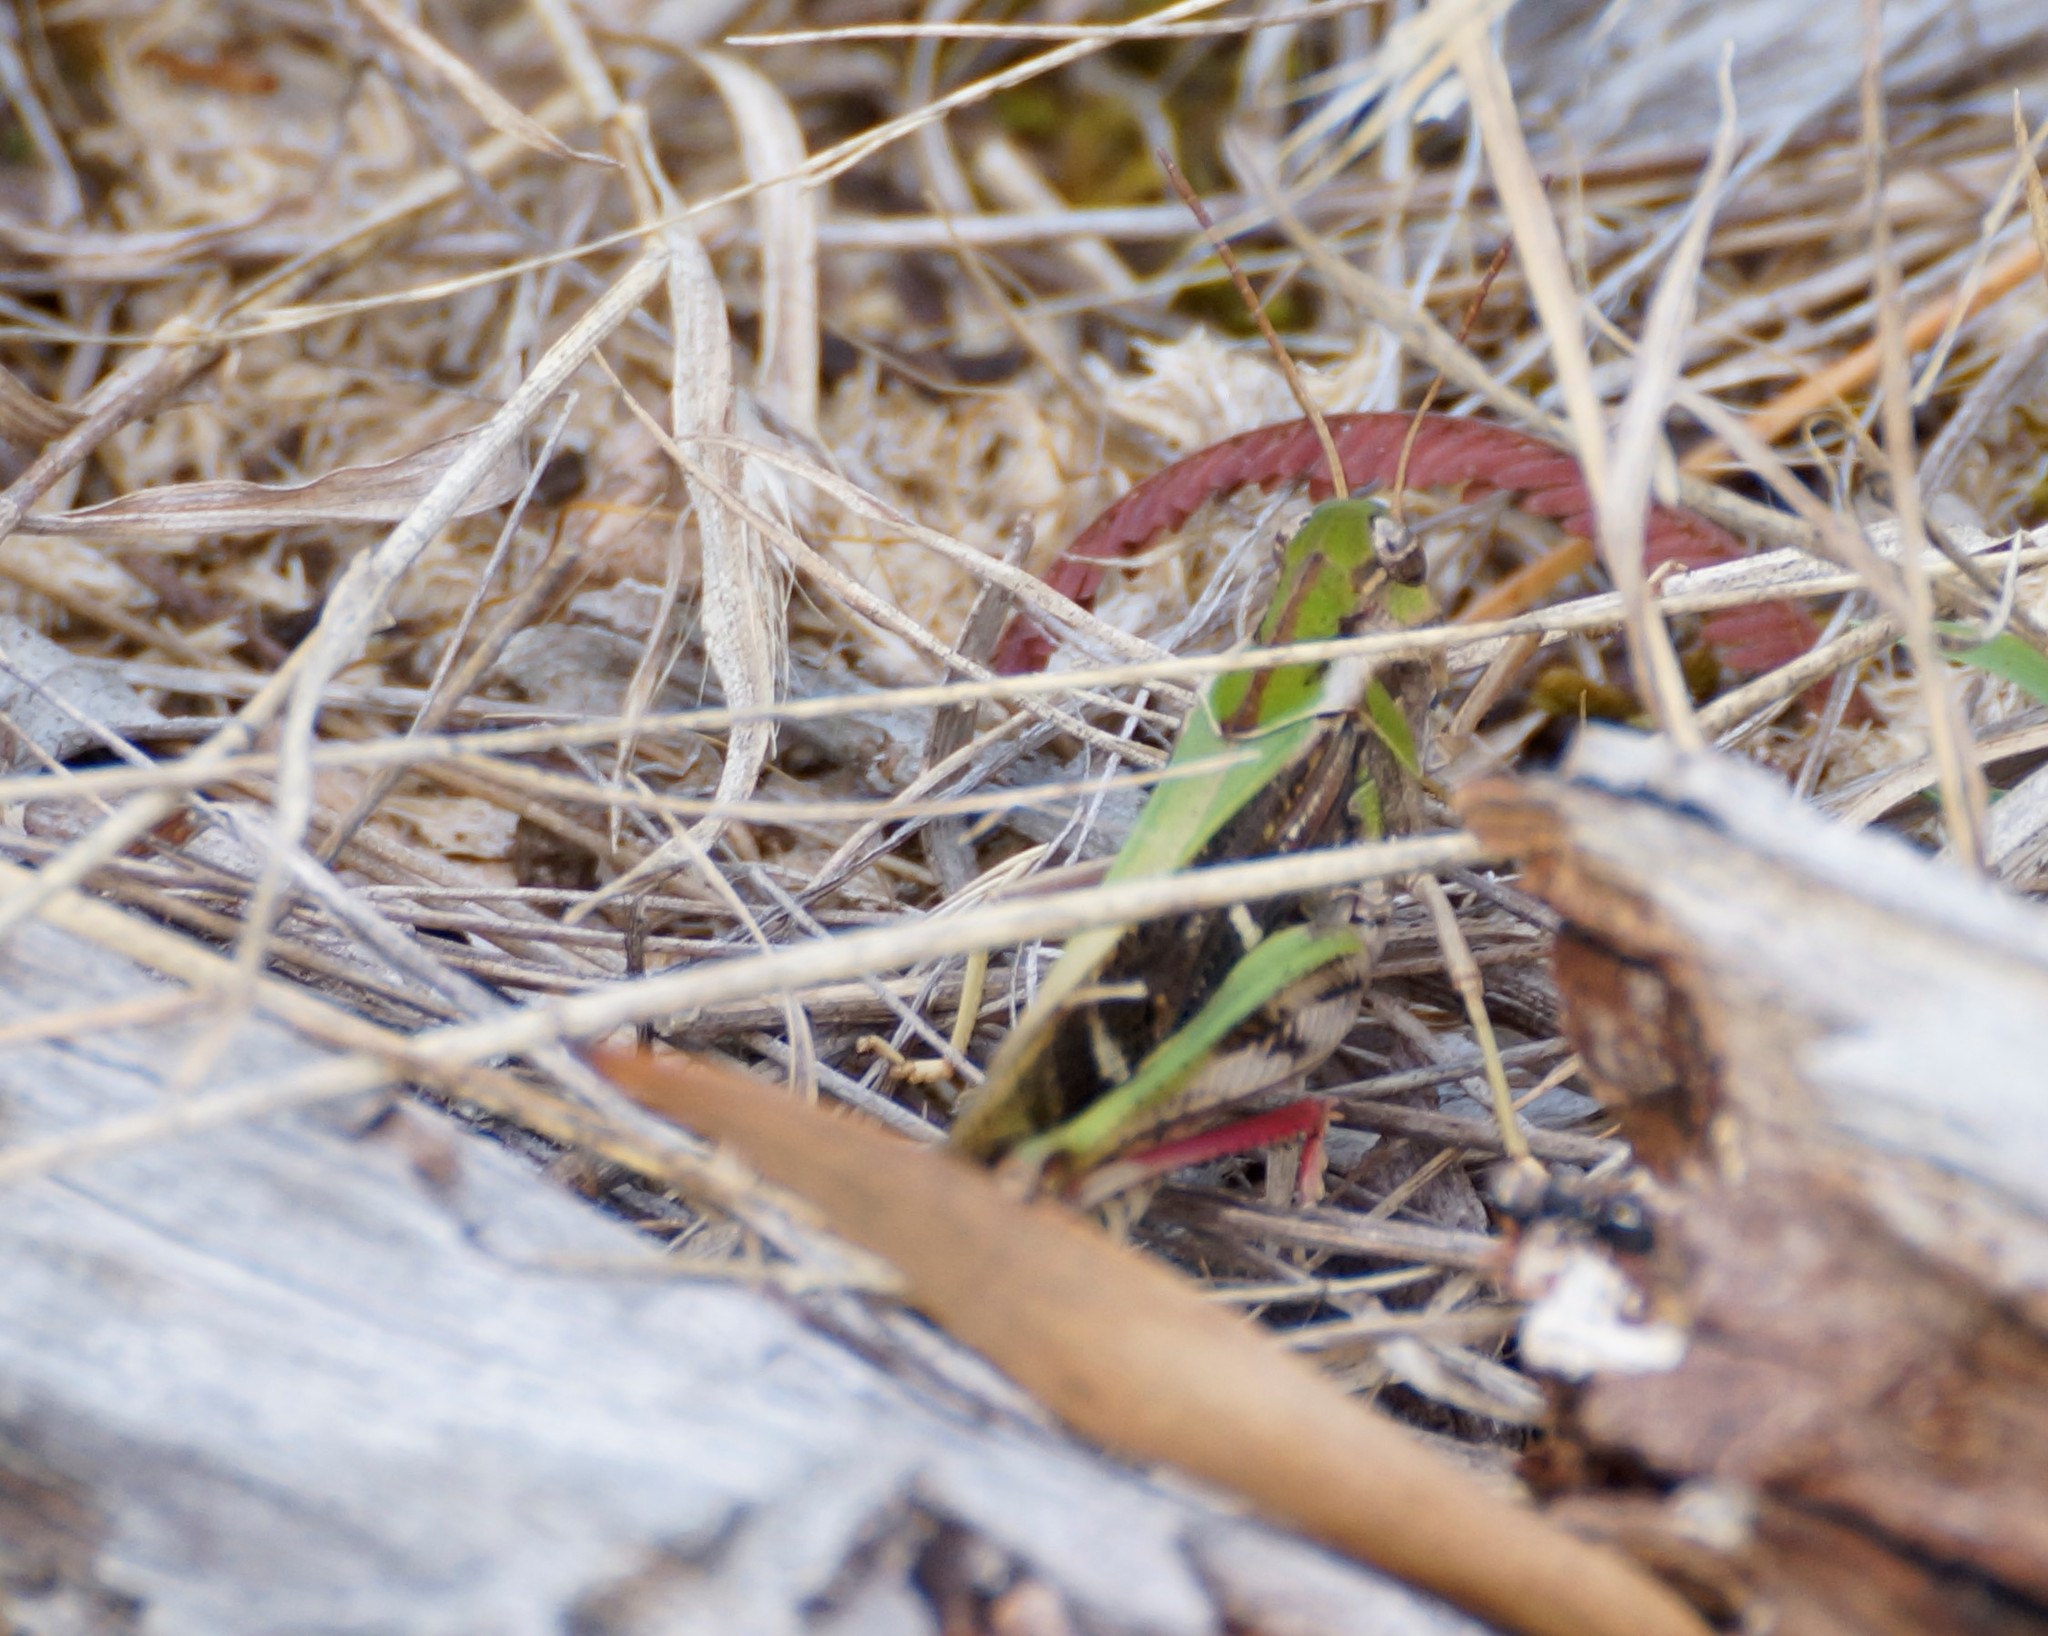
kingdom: Animalia
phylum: Arthropoda
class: Insecta
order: Orthoptera
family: Acrididae
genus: Gastrimargus
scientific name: Gastrimargus musicus
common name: Yellow-winged locust
